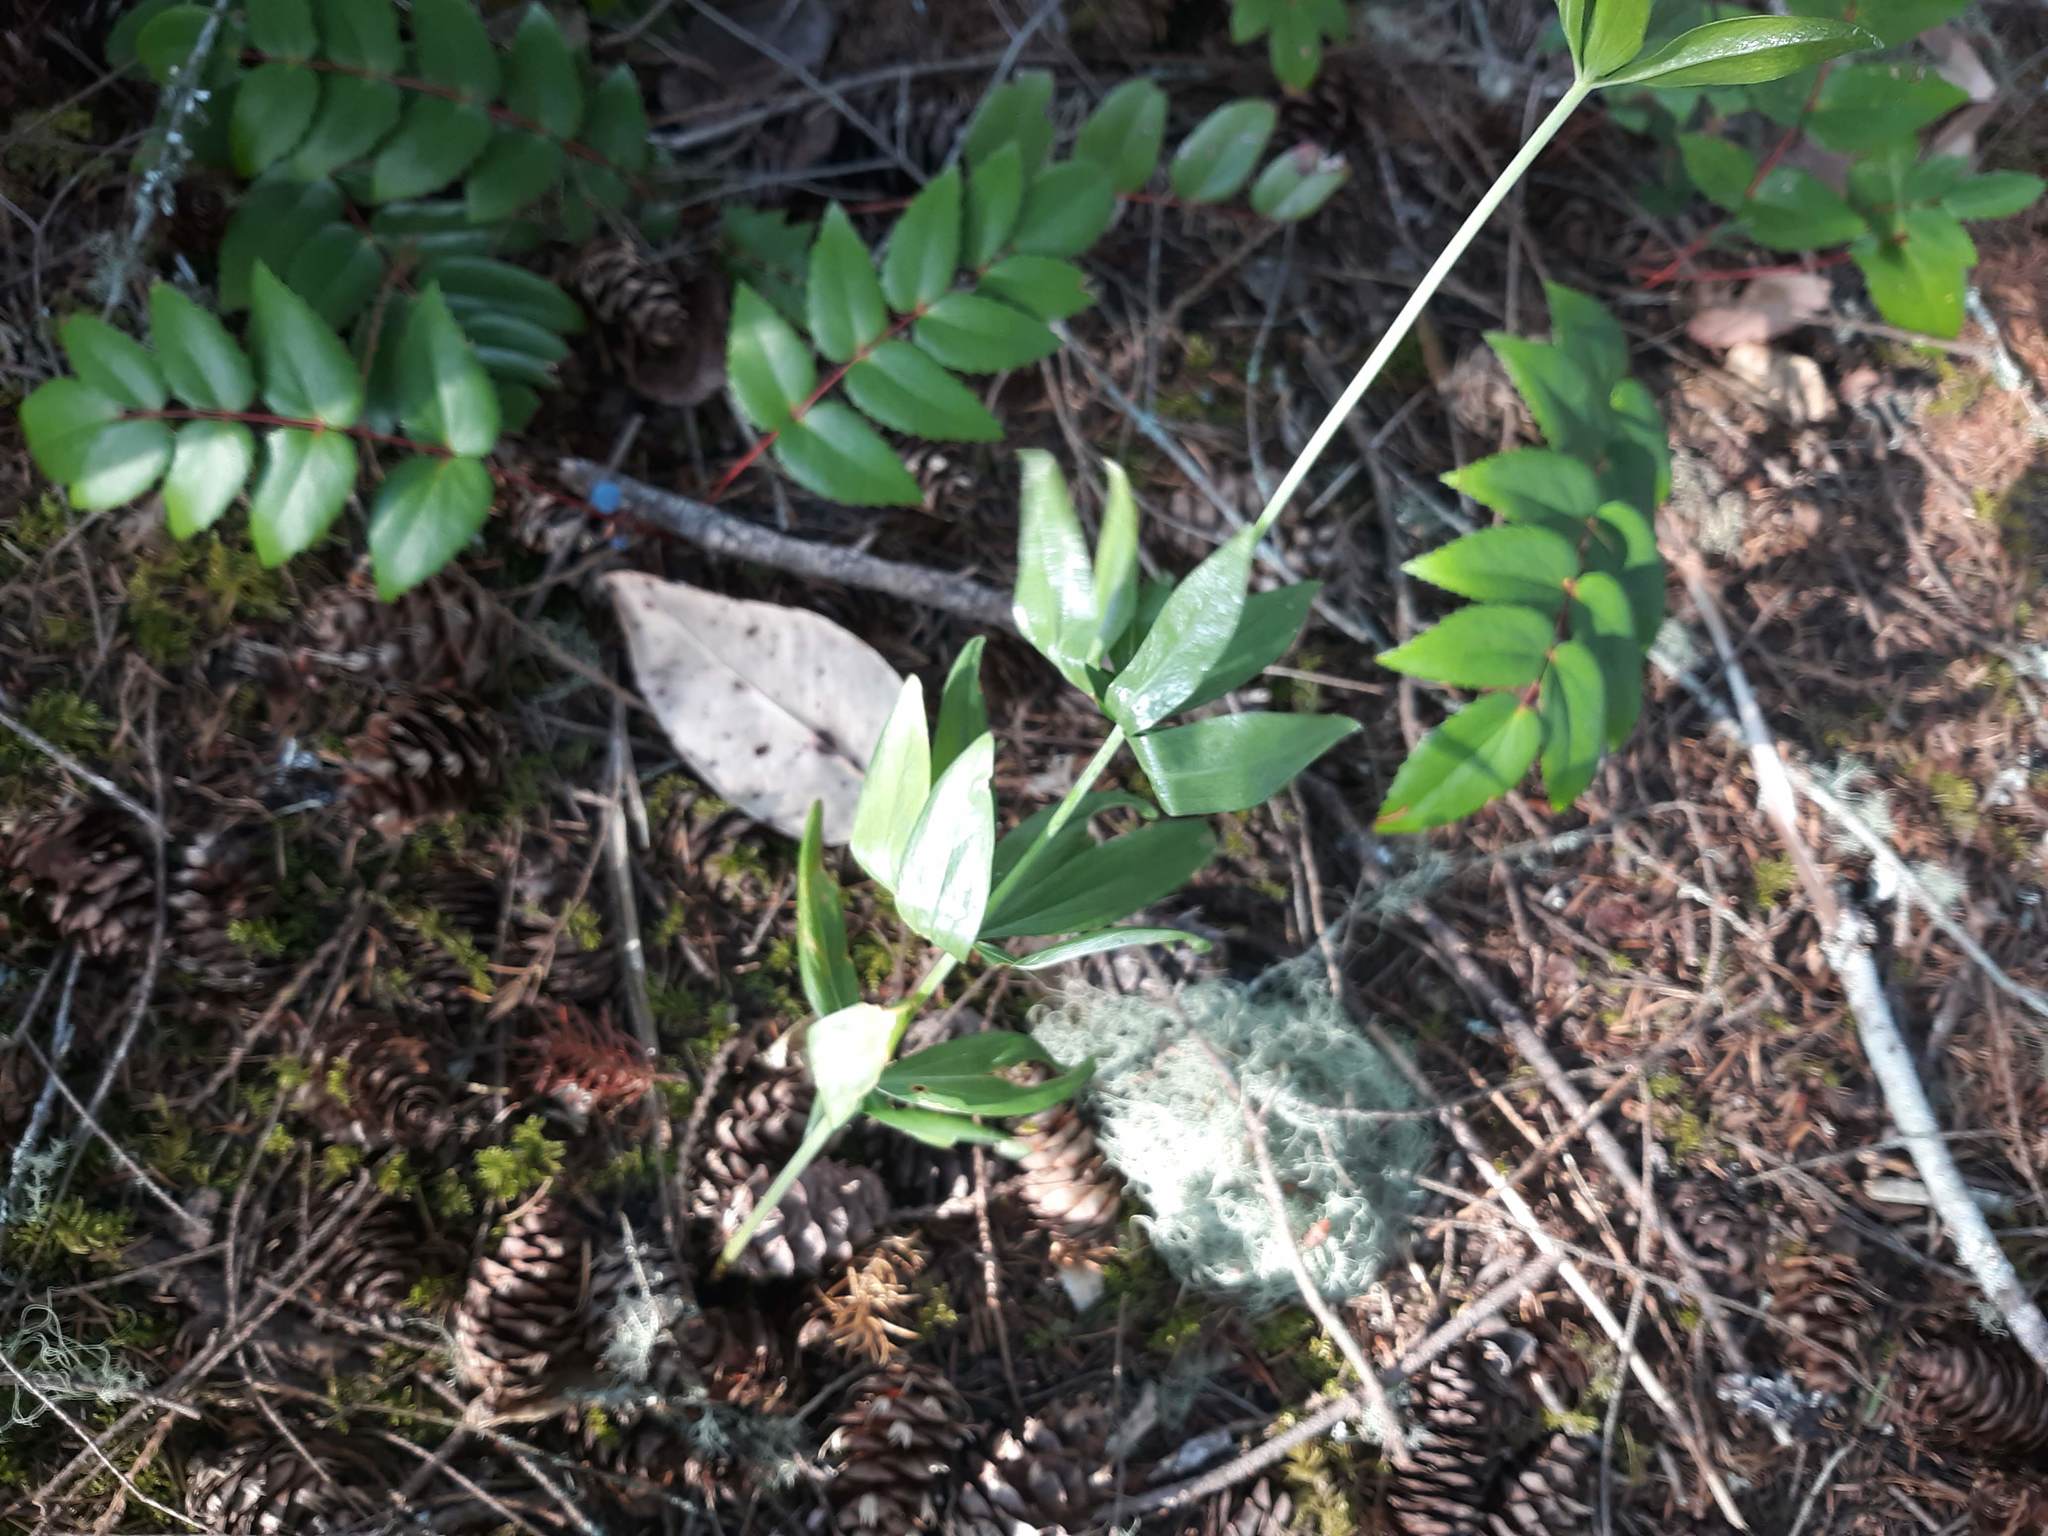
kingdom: Plantae
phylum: Tracheophyta
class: Liliopsida
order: Liliales
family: Liliaceae
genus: Lilium
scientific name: Lilium columbianum
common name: Columbia lily
